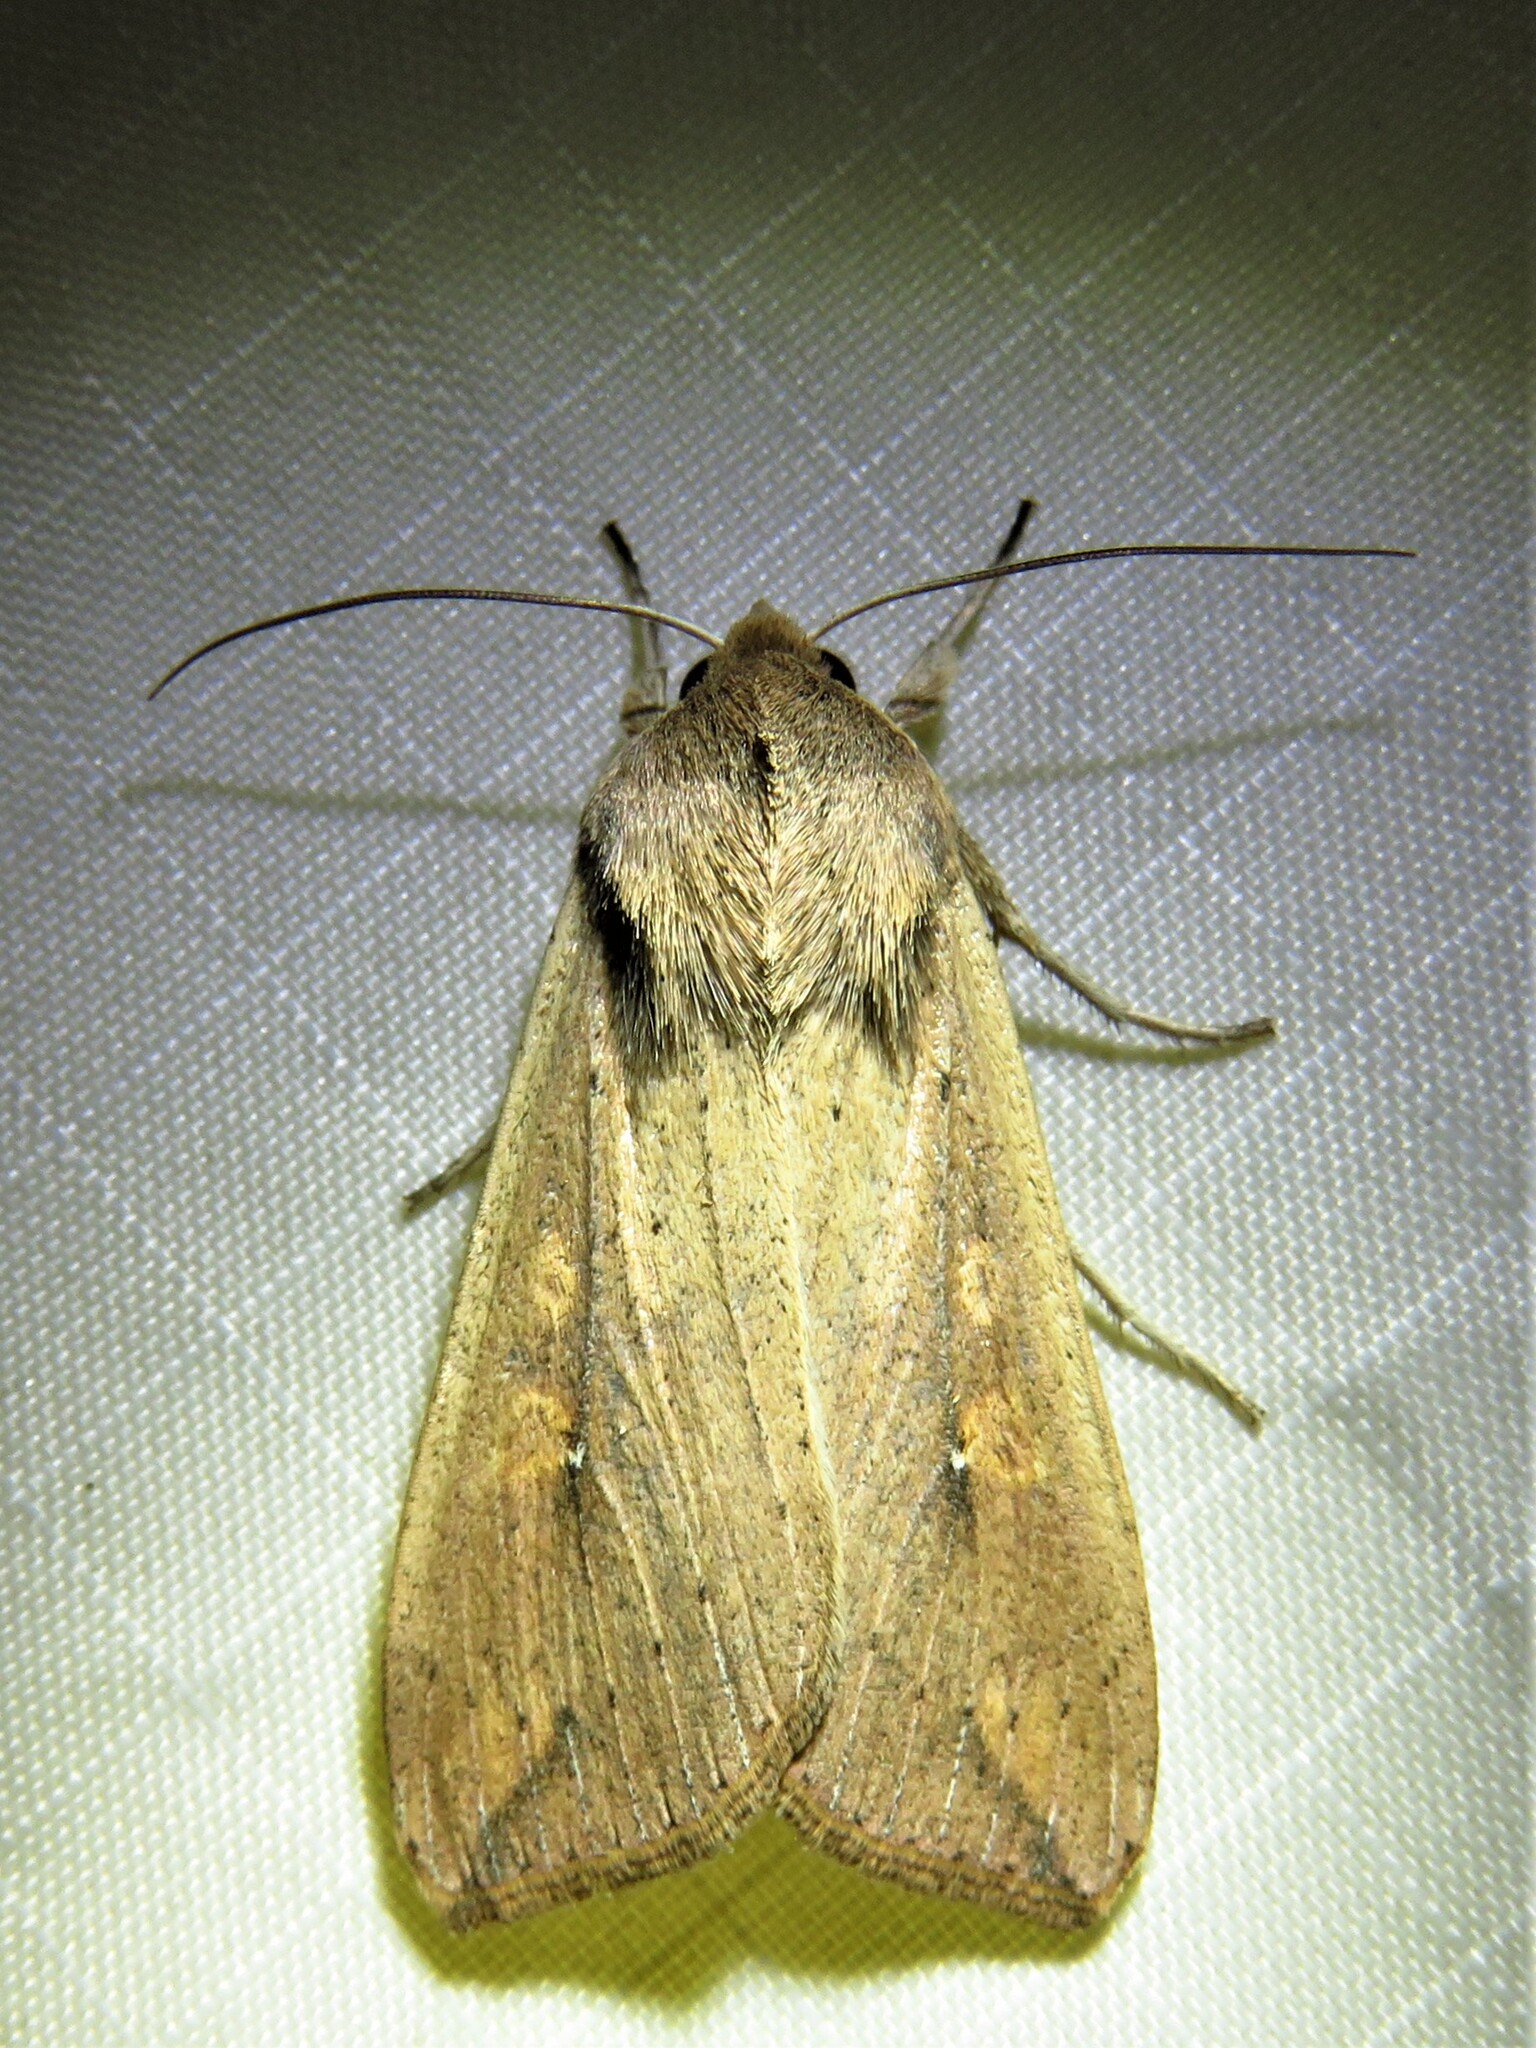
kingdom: Animalia
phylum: Arthropoda
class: Insecta
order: Lepidoptera
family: Noctuidae
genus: Mythimna
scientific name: Mythimna unipuncta
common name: White-speck
